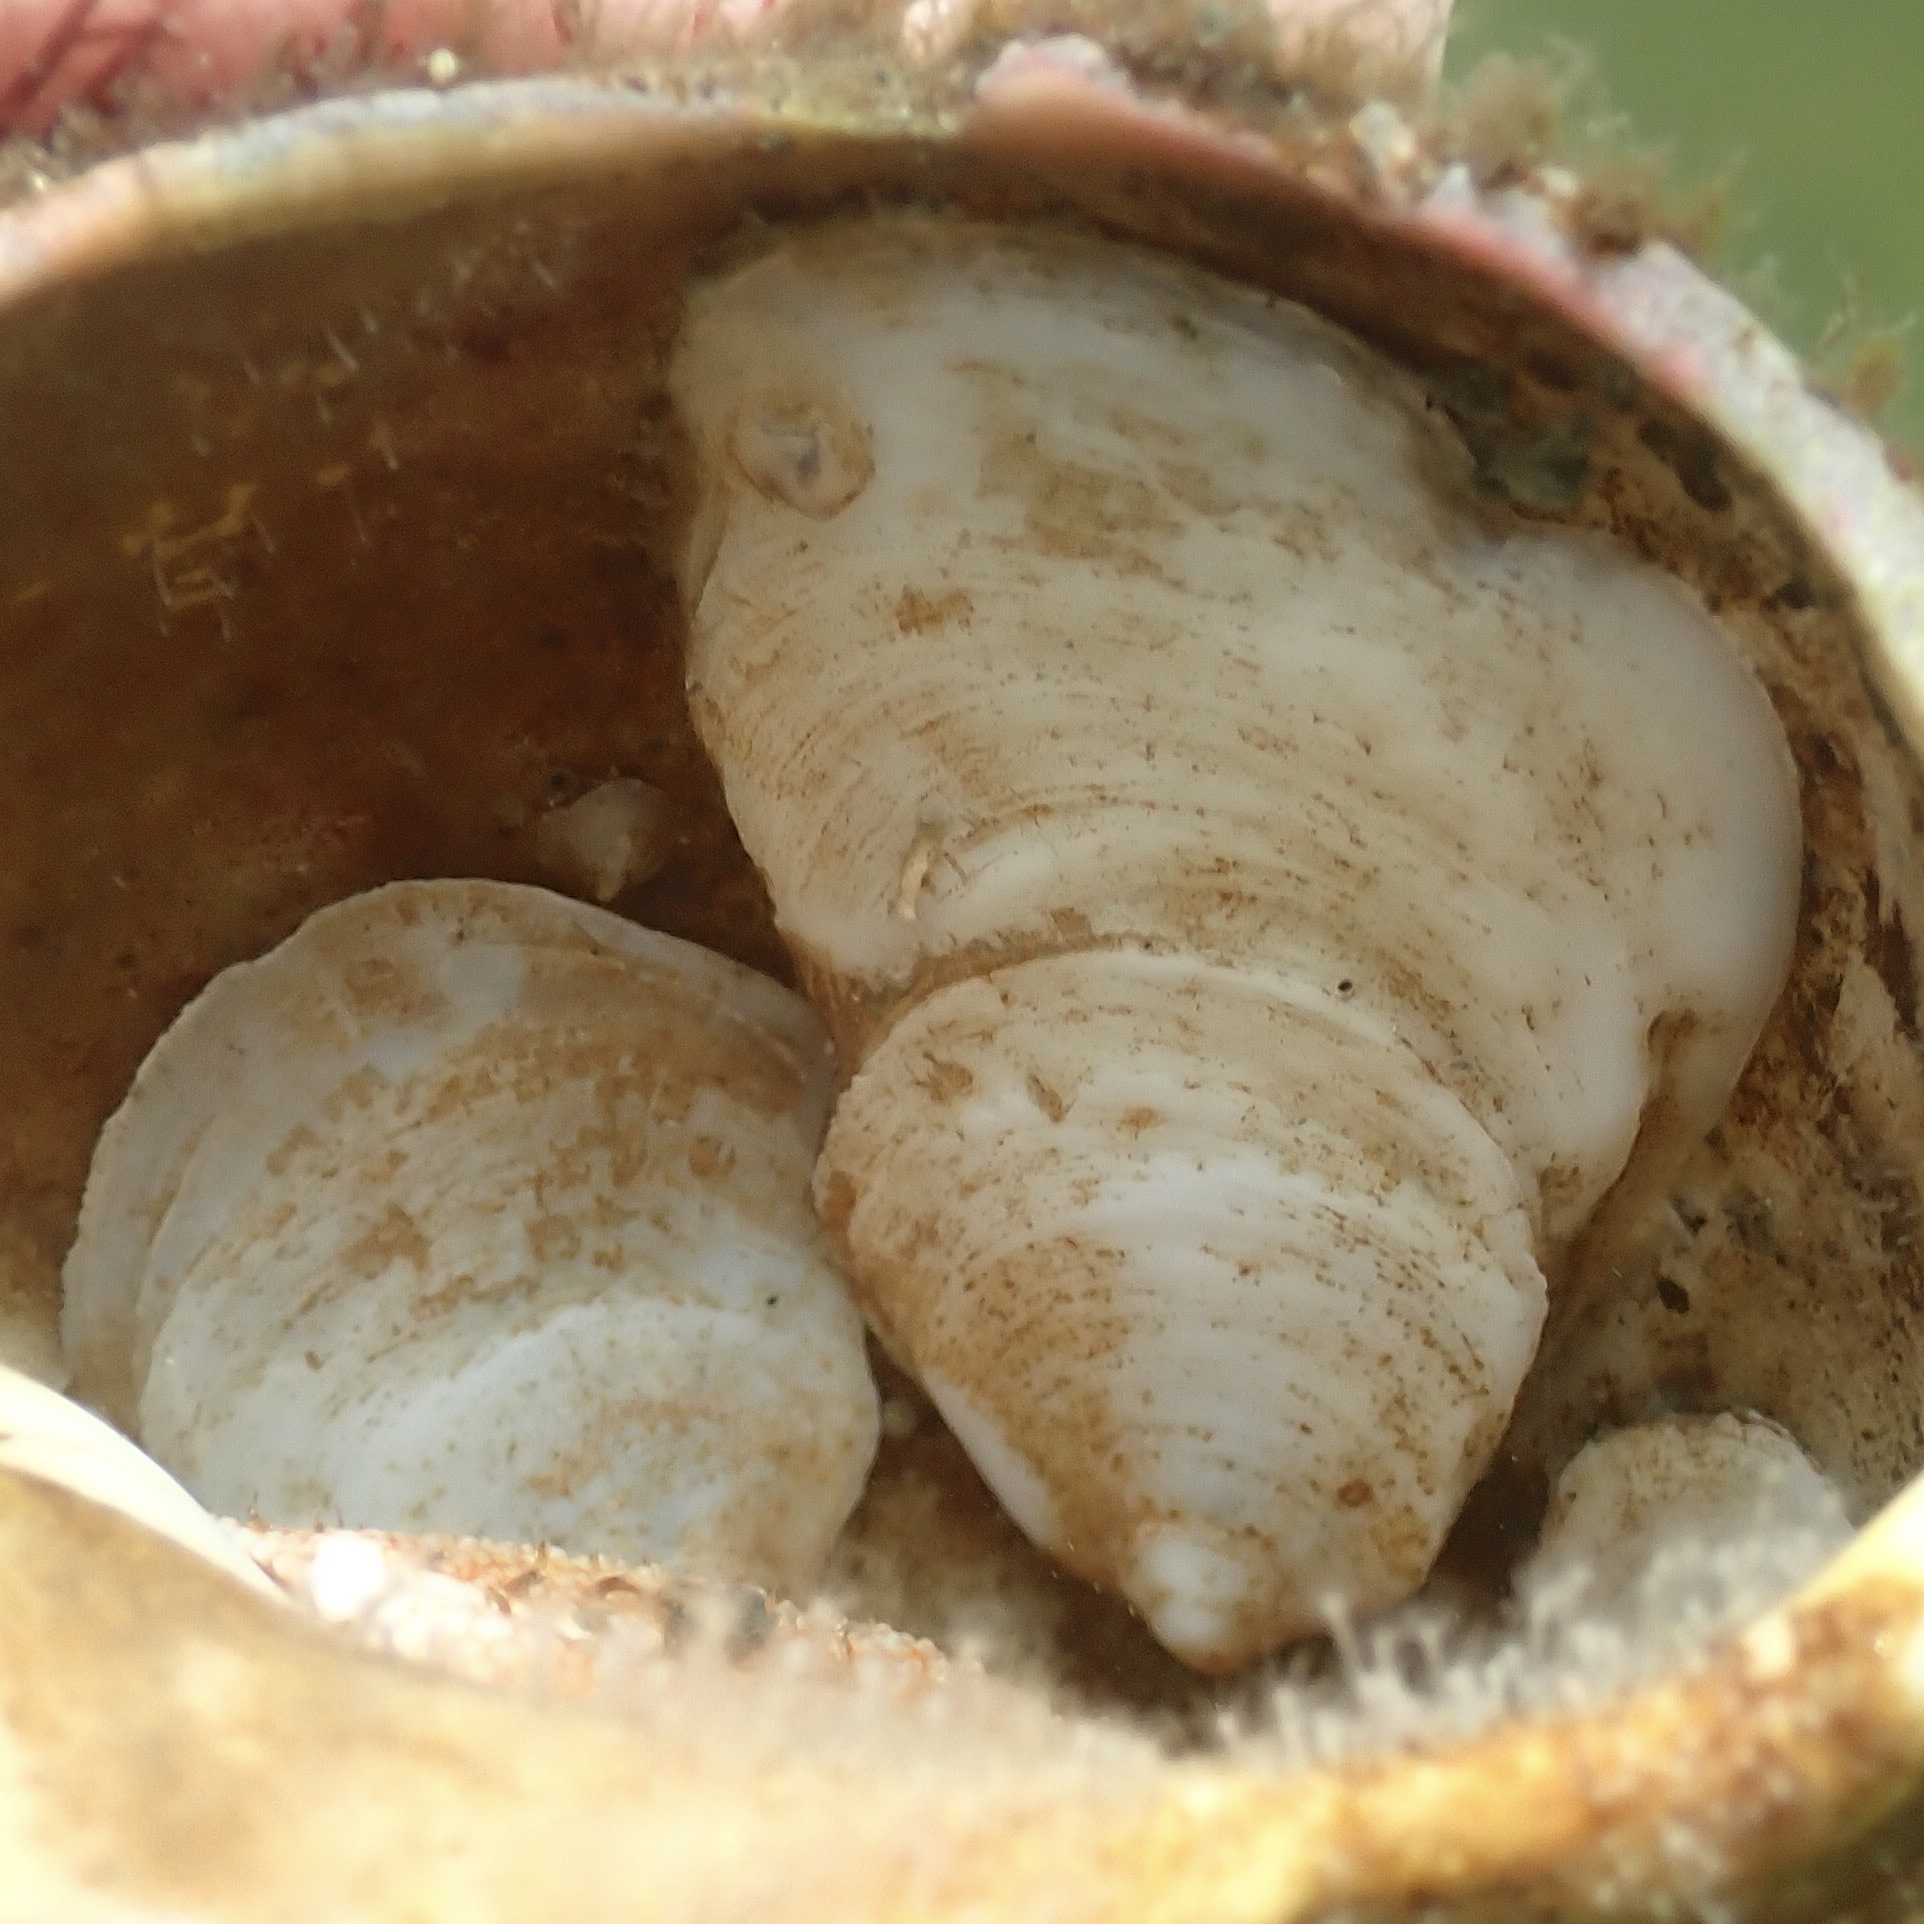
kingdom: Animalia
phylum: Mollusca
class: Gastropoda
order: Littorinimorpha
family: Calyptraeidae
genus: Crepidula
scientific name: Crepidula plana
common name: Eastern white slippersnail
